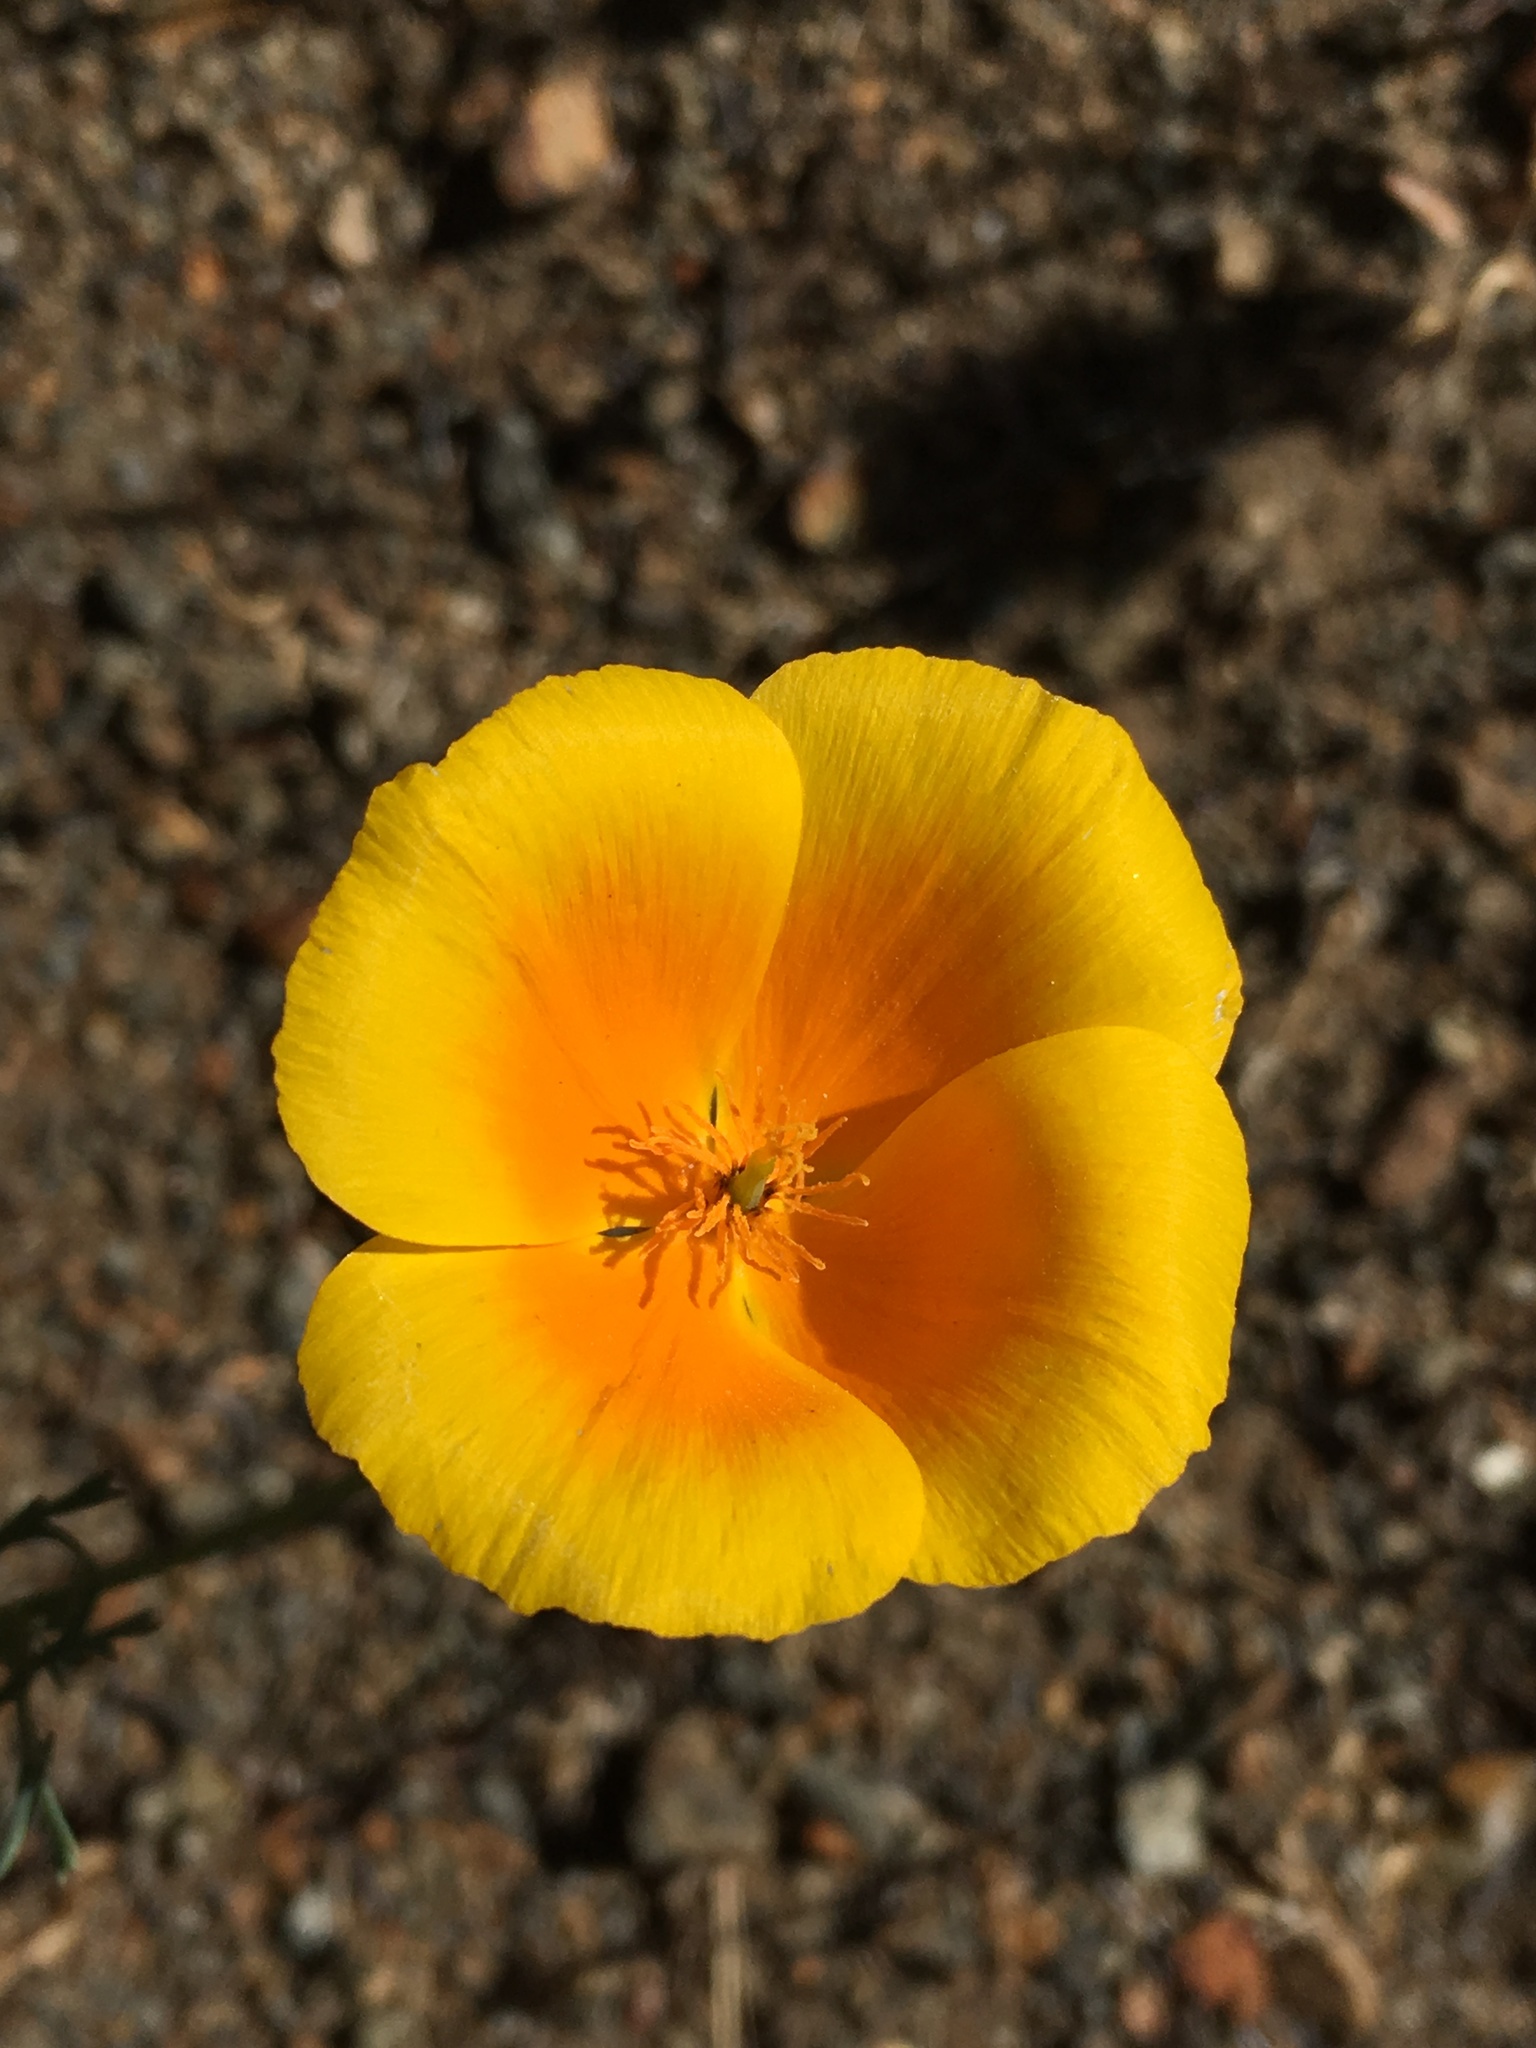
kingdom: Plantae
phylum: Tracheophyta
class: Magnoliopsida
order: Ranunculales
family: Papaveraceae
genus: Eschscholzia
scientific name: Eschscholzia californica
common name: California poppy
